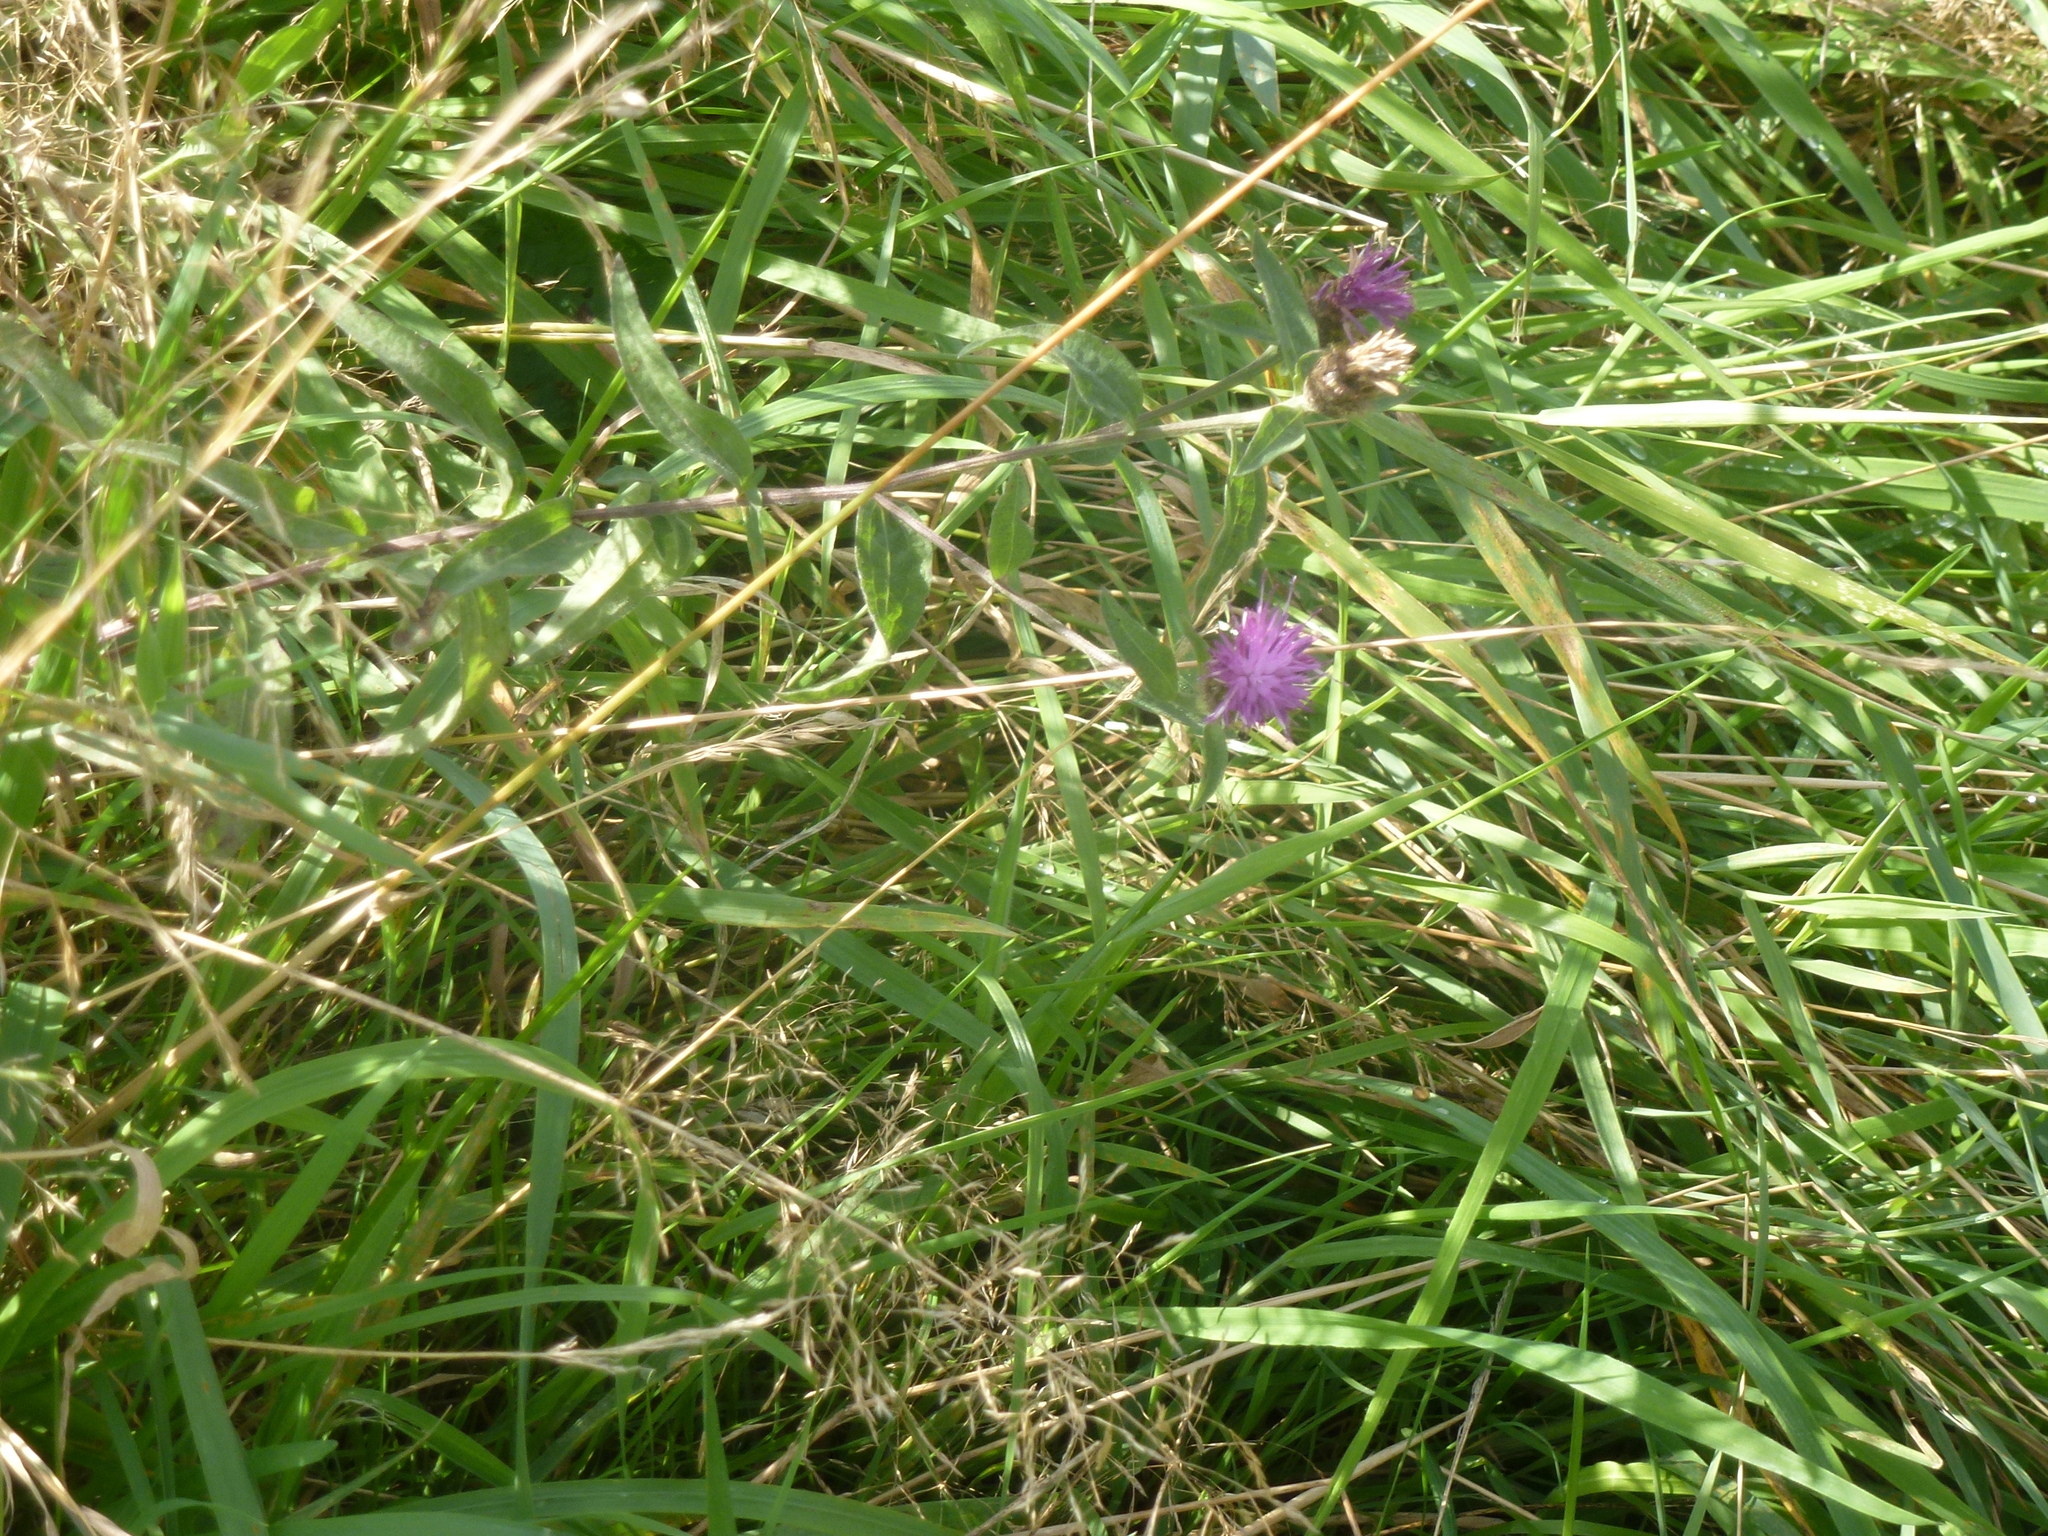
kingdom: Plantae
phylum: Tracheophyta
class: Magnoliopsida
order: Asterales
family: Asteraceae
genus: Centaurea
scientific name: Centaurea nigra
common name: Lesser knapweed
